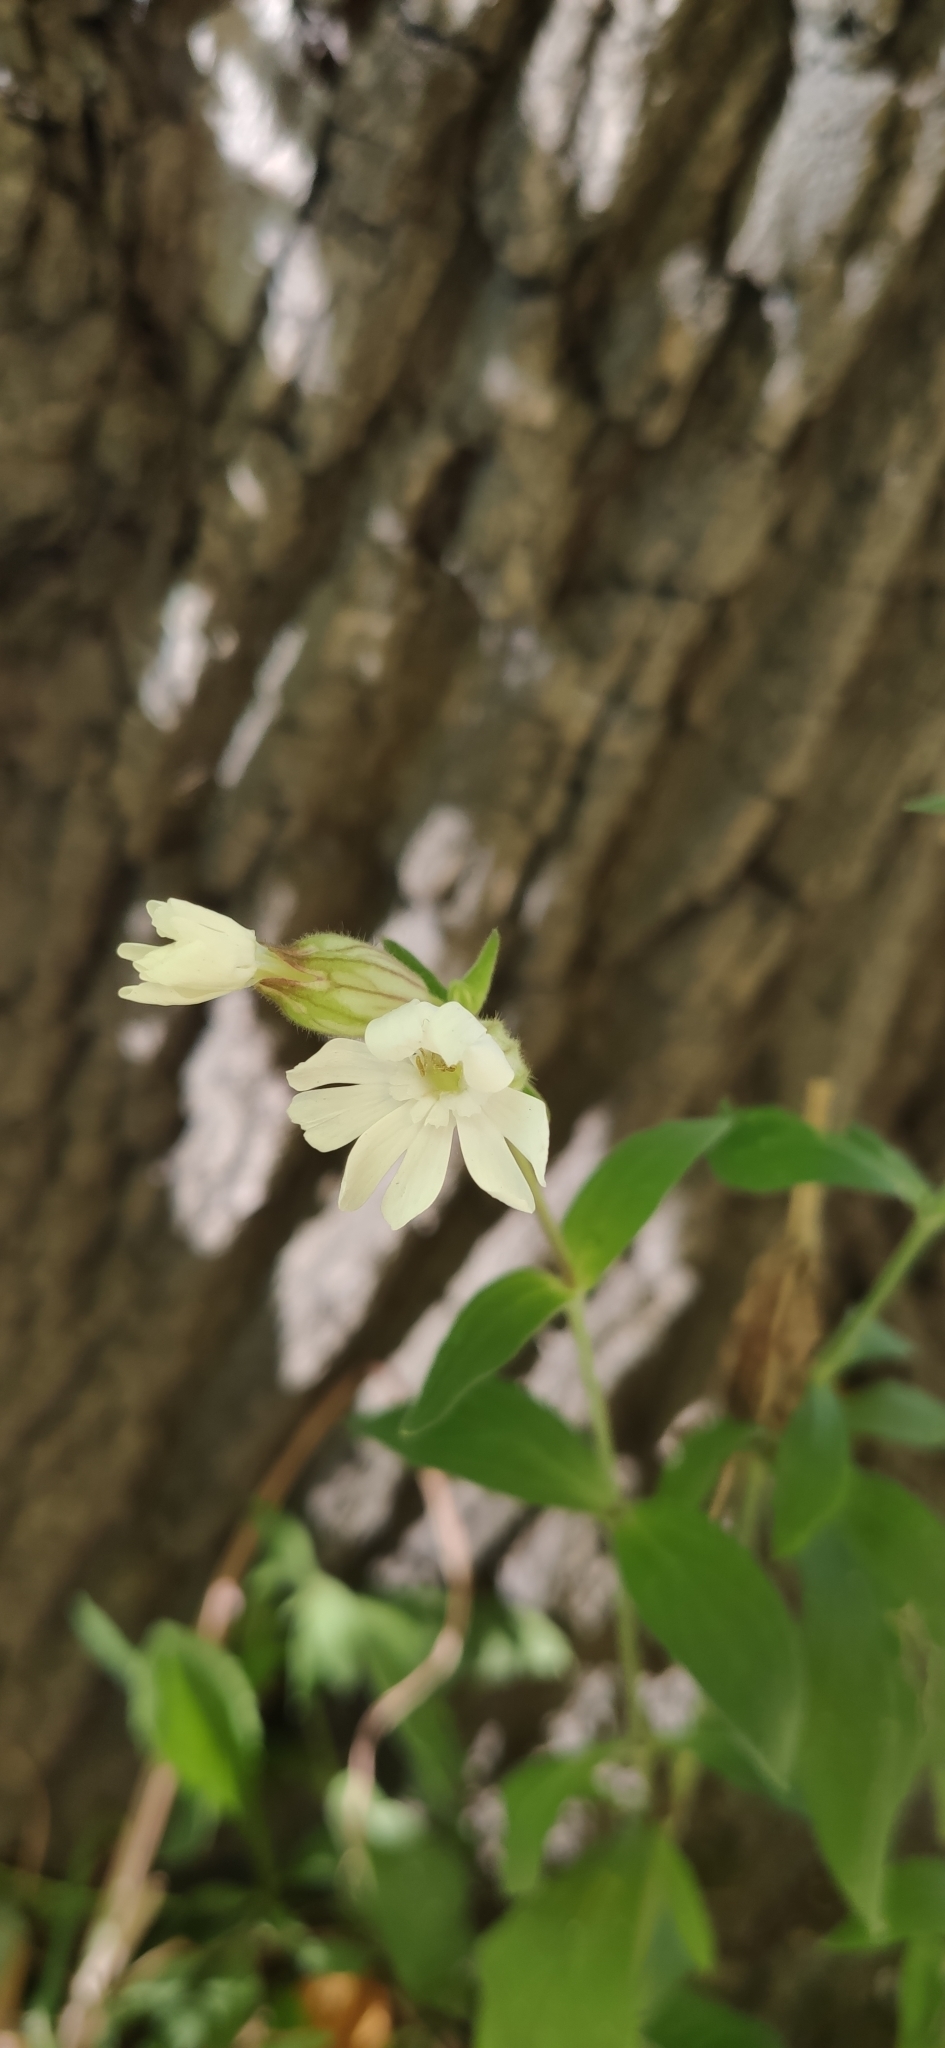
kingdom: Plantae
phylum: Tracheophyta
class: Magnoliopsida
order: Caryophyllales
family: Caryophyllaceae
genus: Silene
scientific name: Silene latifolia
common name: White campion
